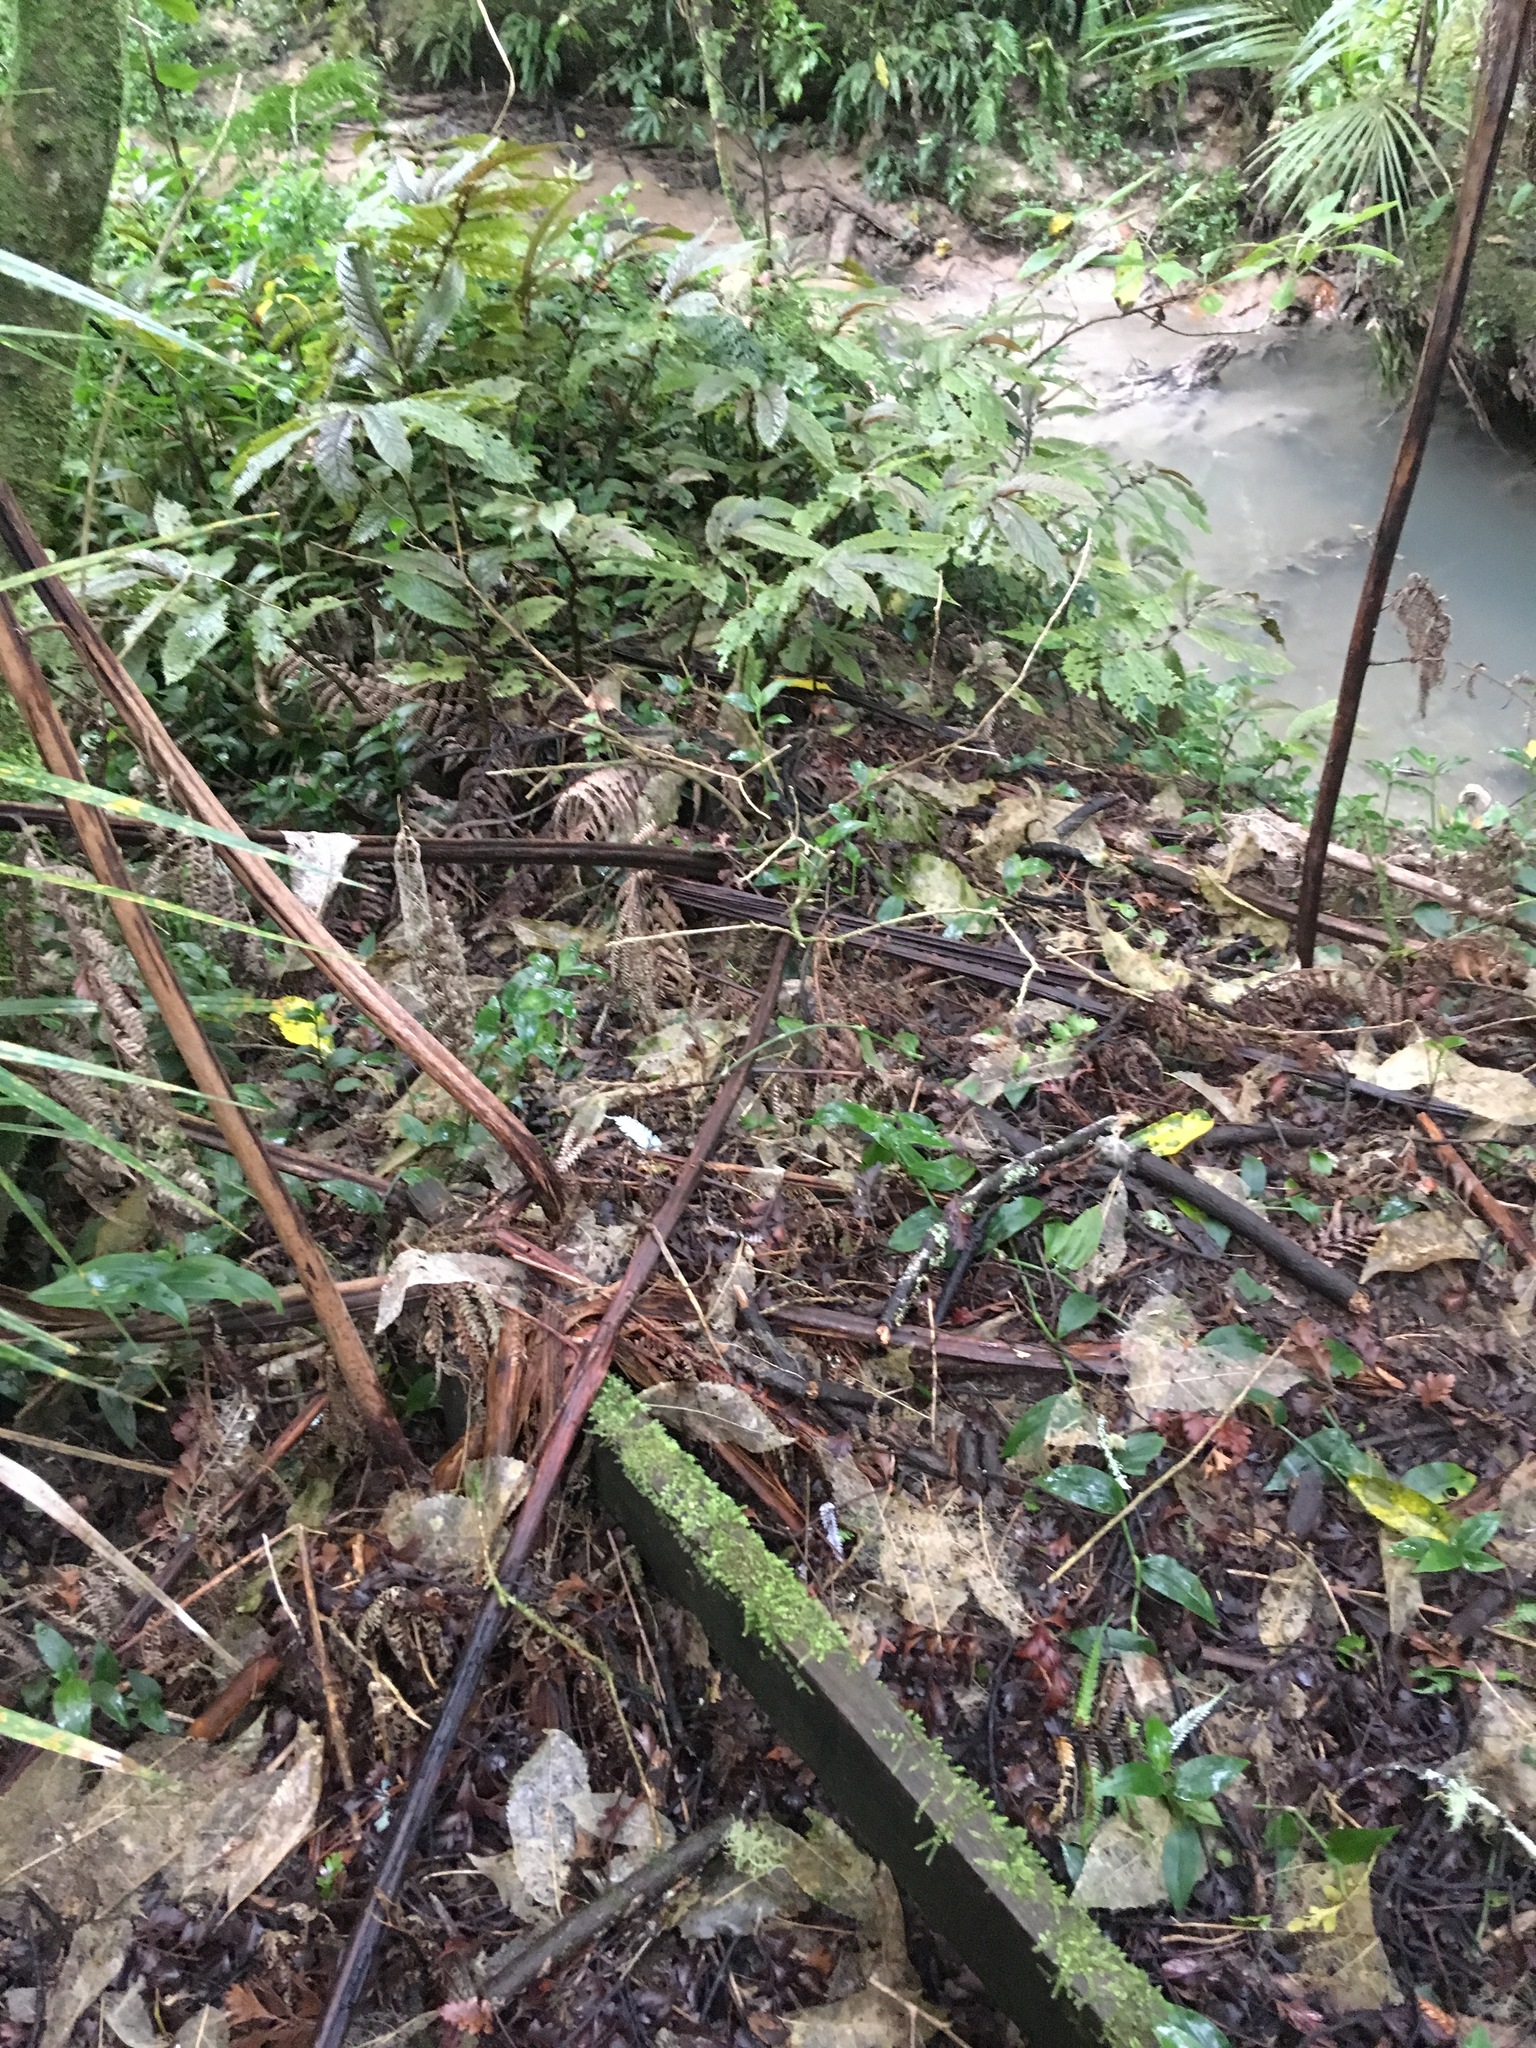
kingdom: Plantae
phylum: Tracheophyta
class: Magnoliopsida
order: Rosales
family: Urticaceae
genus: Elatostema
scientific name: Elatostema rugosum
